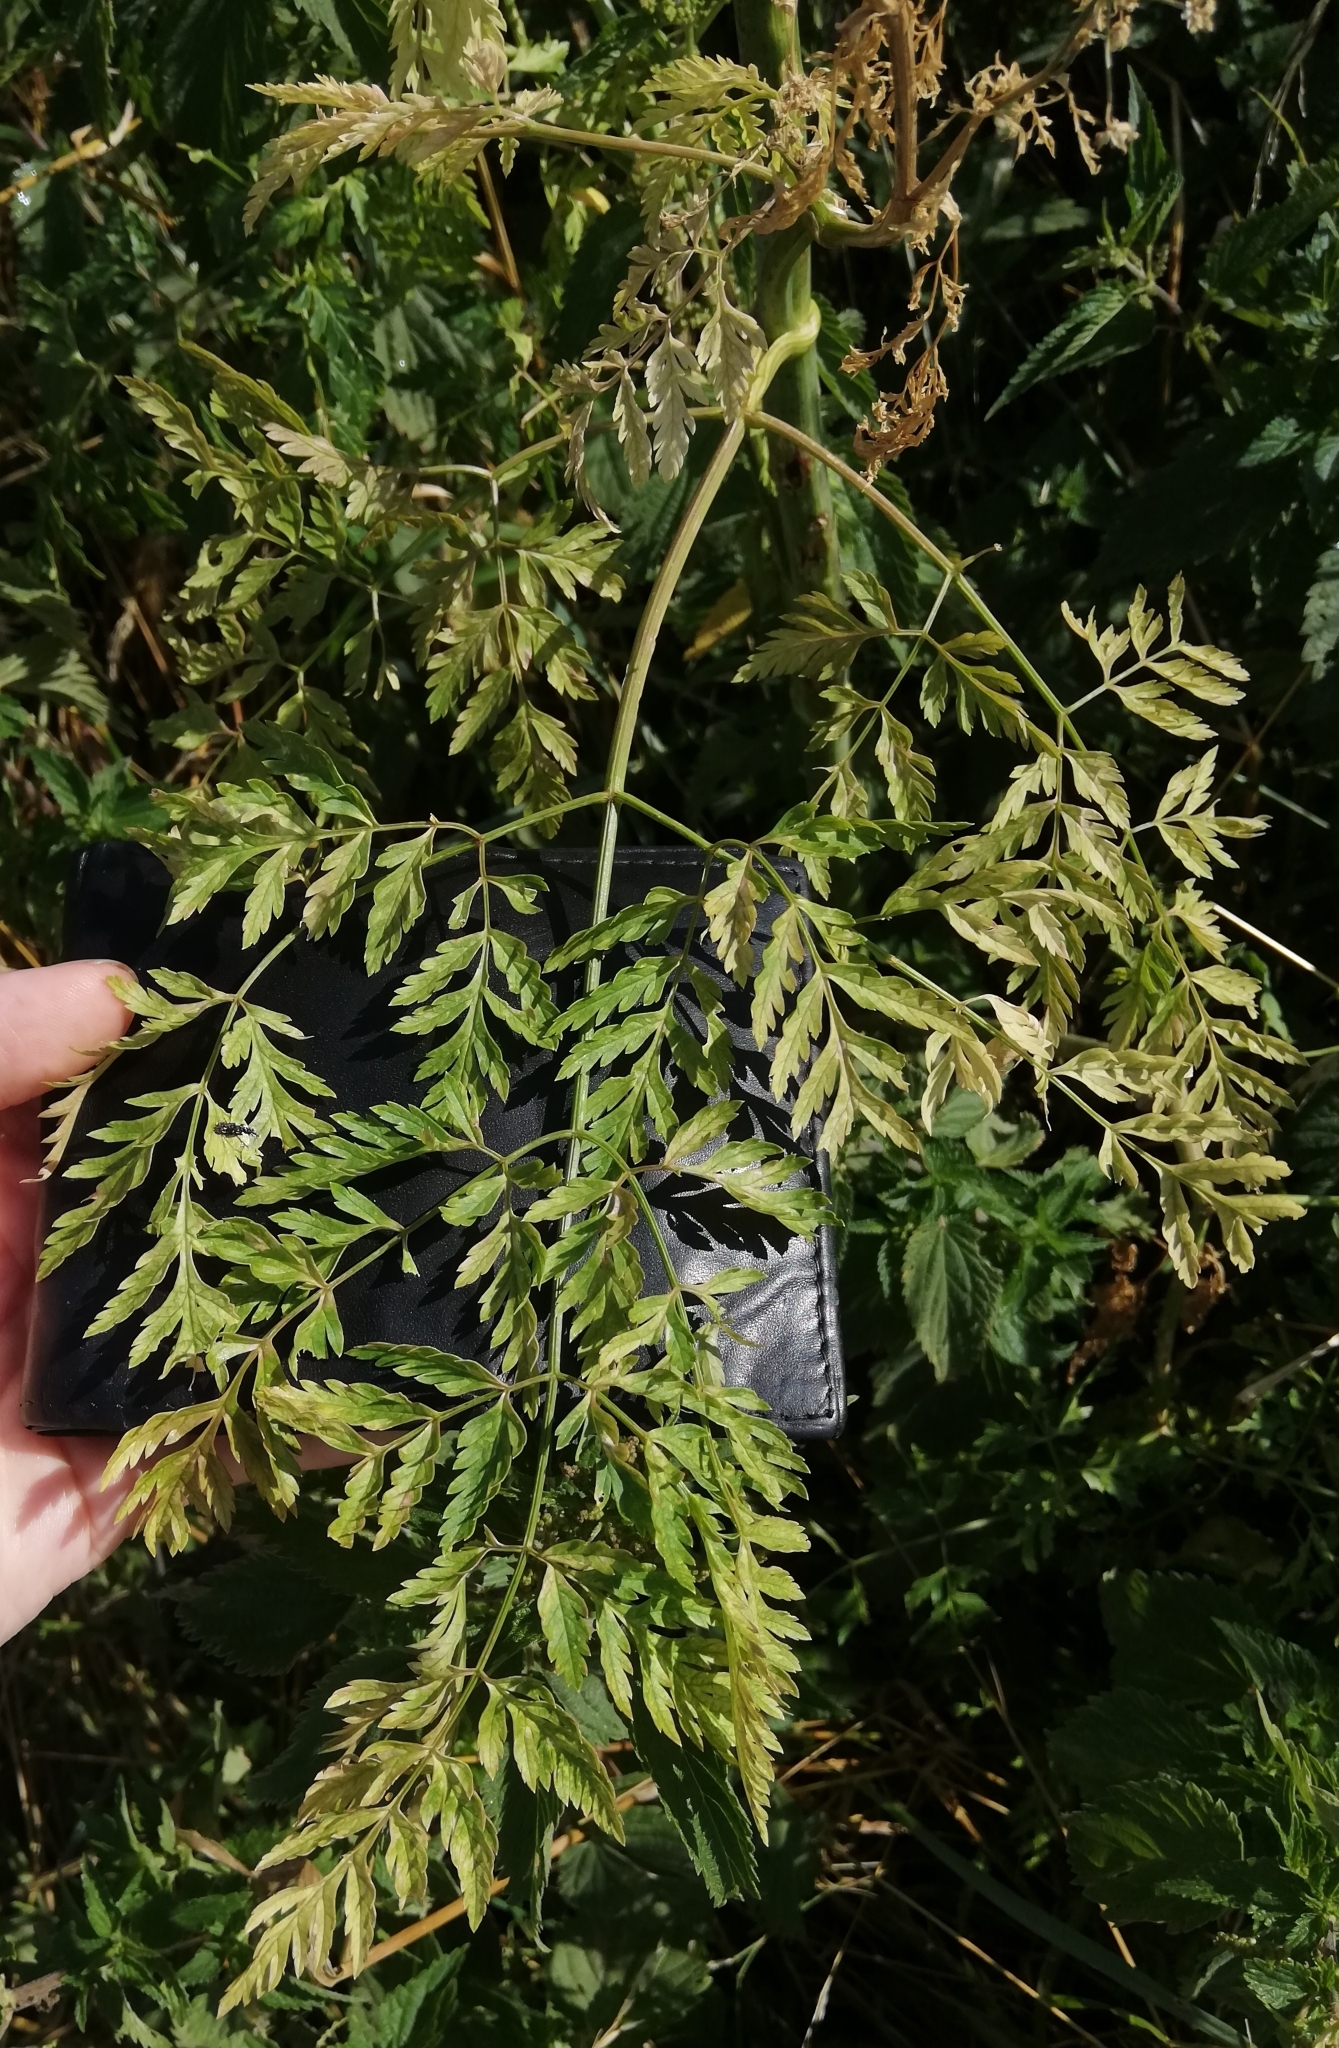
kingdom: Plantae
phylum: Tracheophyta
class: Magnoliopsida
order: Apiales
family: Apiaceae
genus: Conium
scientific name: Conium maculatum
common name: Hemlock
